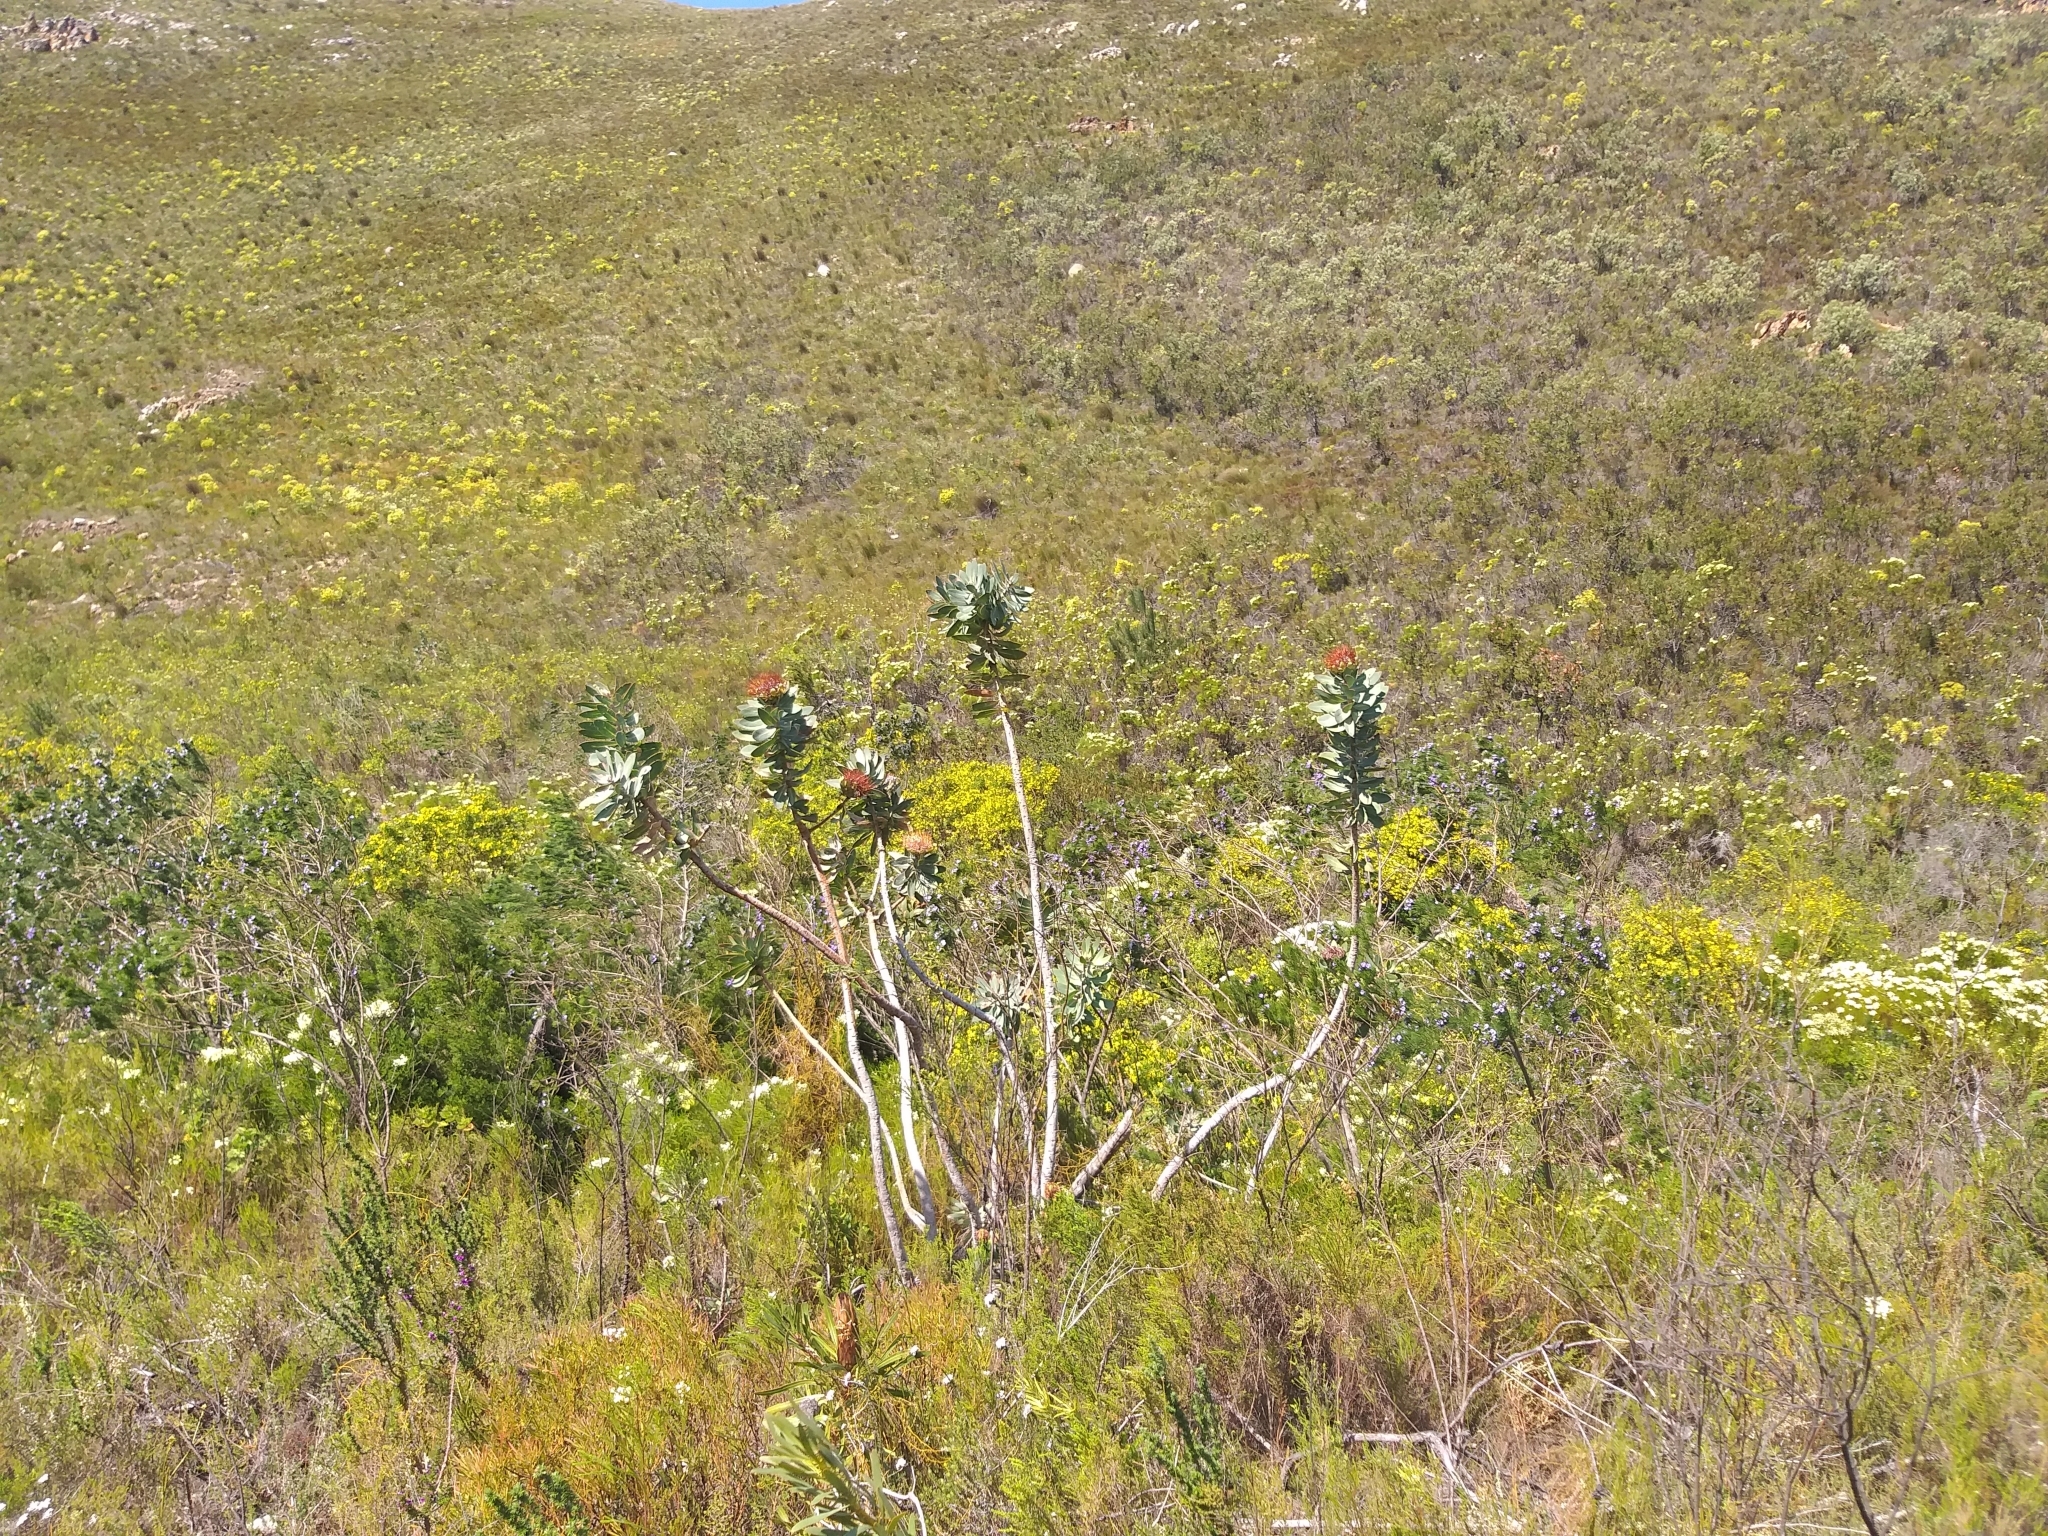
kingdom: Plantae
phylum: Tracheophyta
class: Magnoliopsida
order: Proteales
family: Proteaceae
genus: Protea
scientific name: Protea nitida
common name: Tree protea
